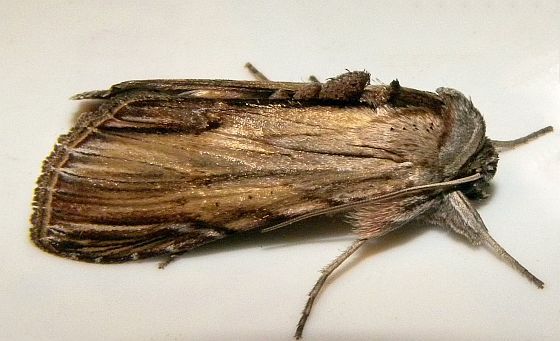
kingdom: Animalia
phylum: Arthropoda
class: Insecta
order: Lepidoptera
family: Noctuidae
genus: Cucullia
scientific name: Cucullia convexipennis
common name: Brown-hooded owlet
